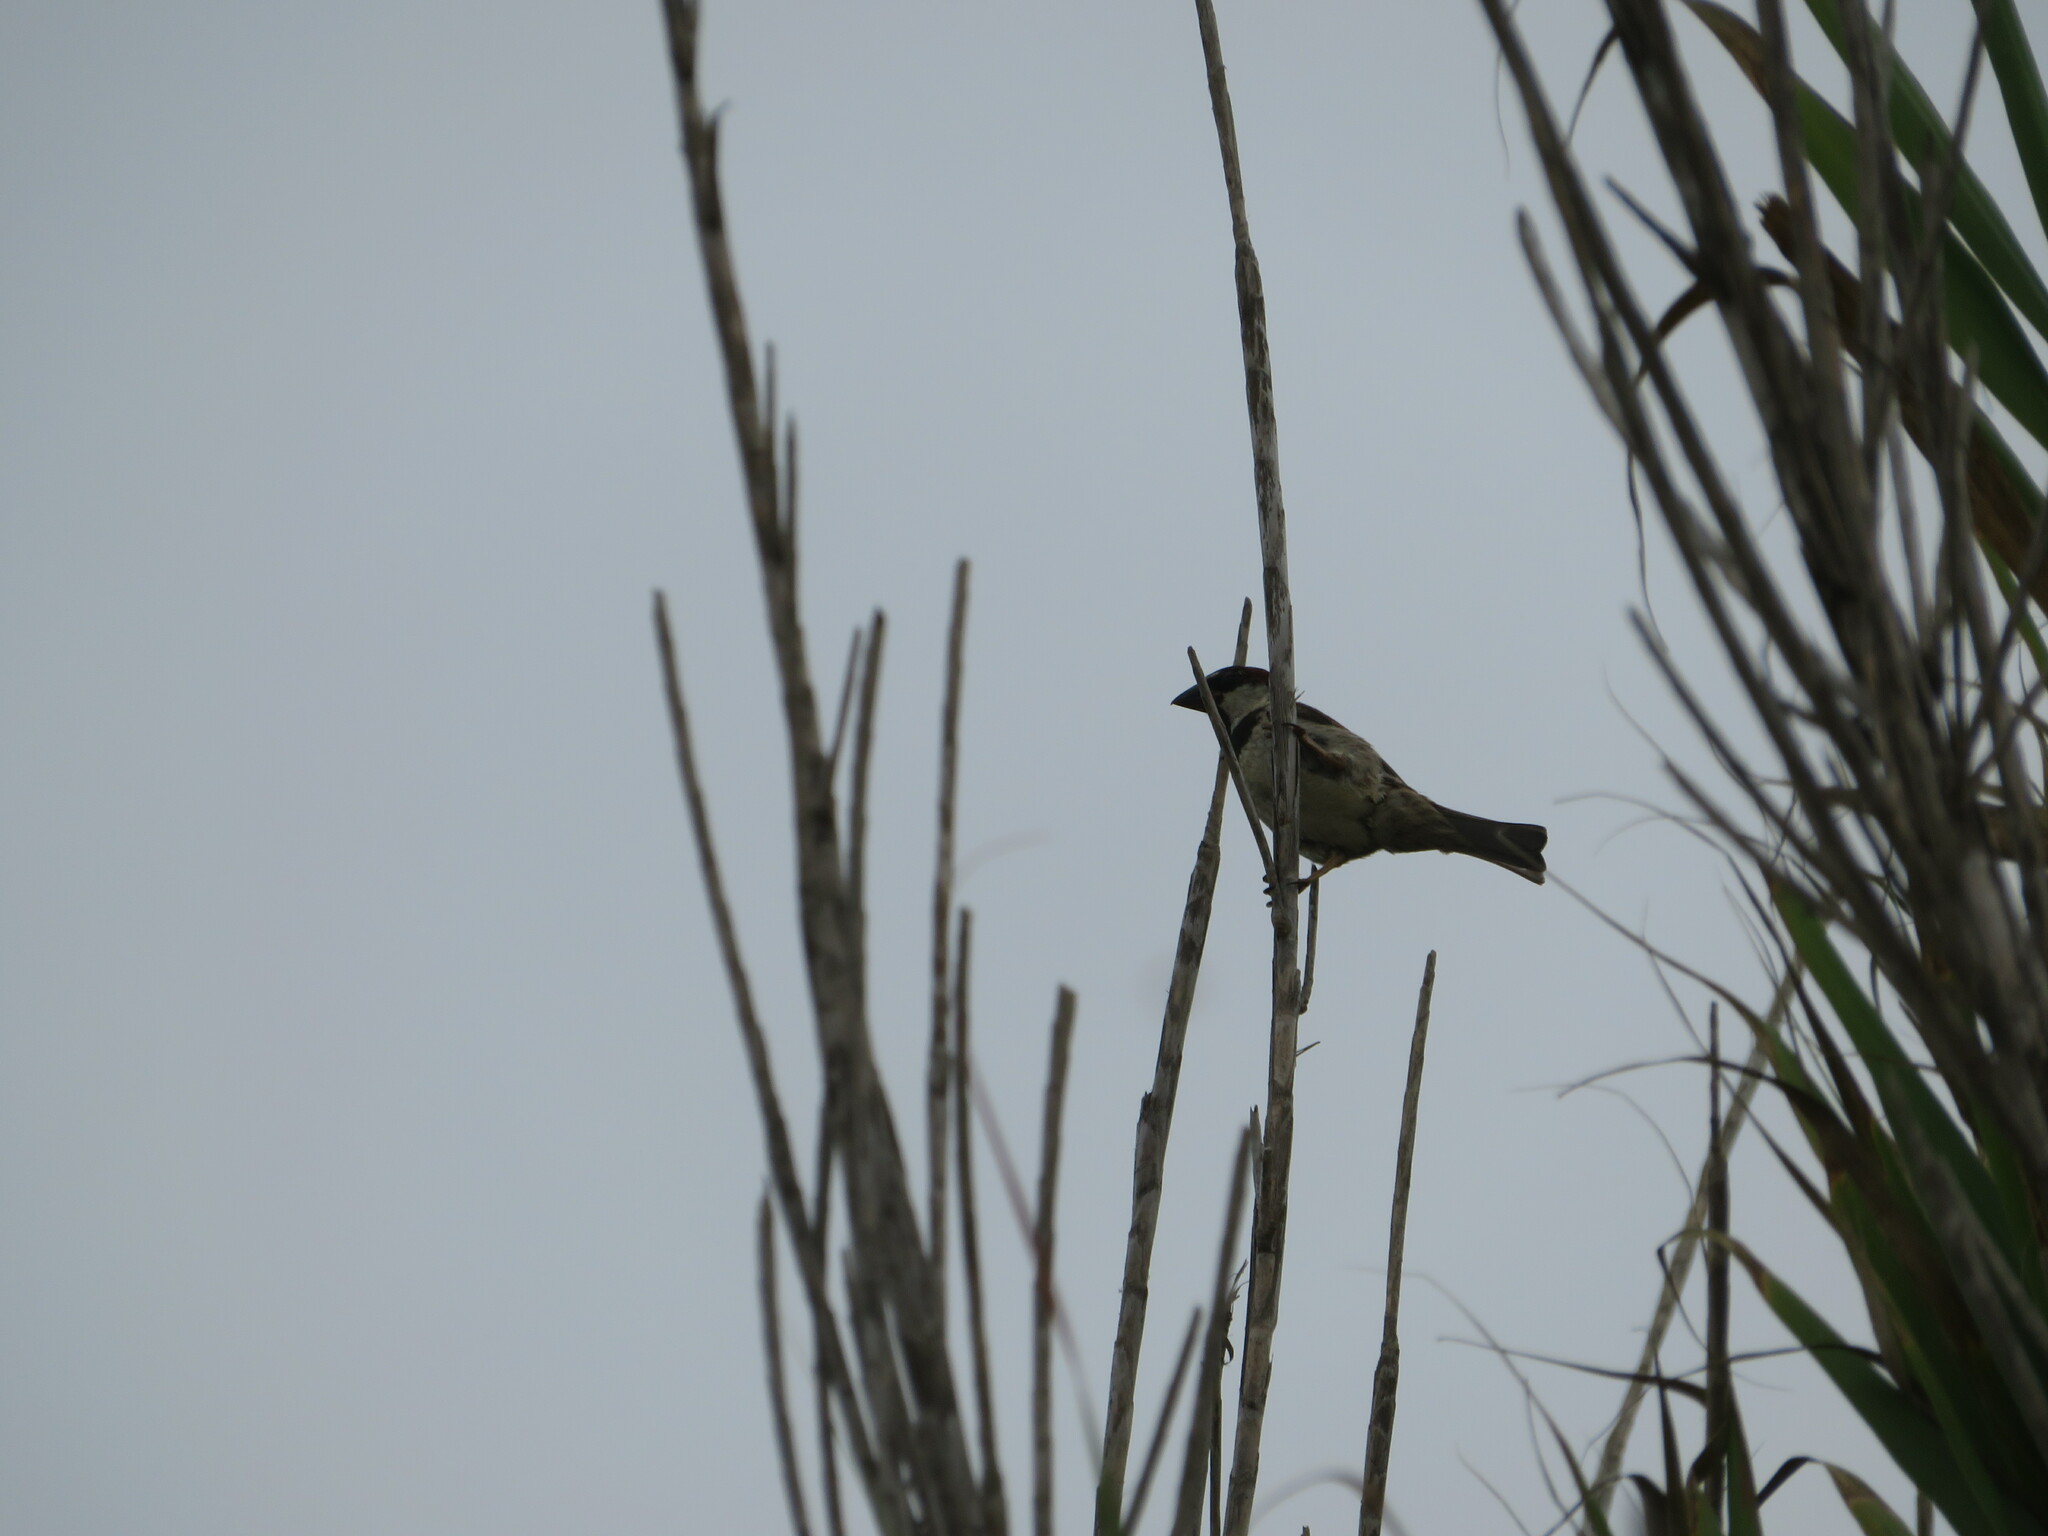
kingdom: Animalia
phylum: Chordata
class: Aves
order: Passeriformes
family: Passeridae
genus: Passer
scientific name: Passer domesticus
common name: House sparrow
